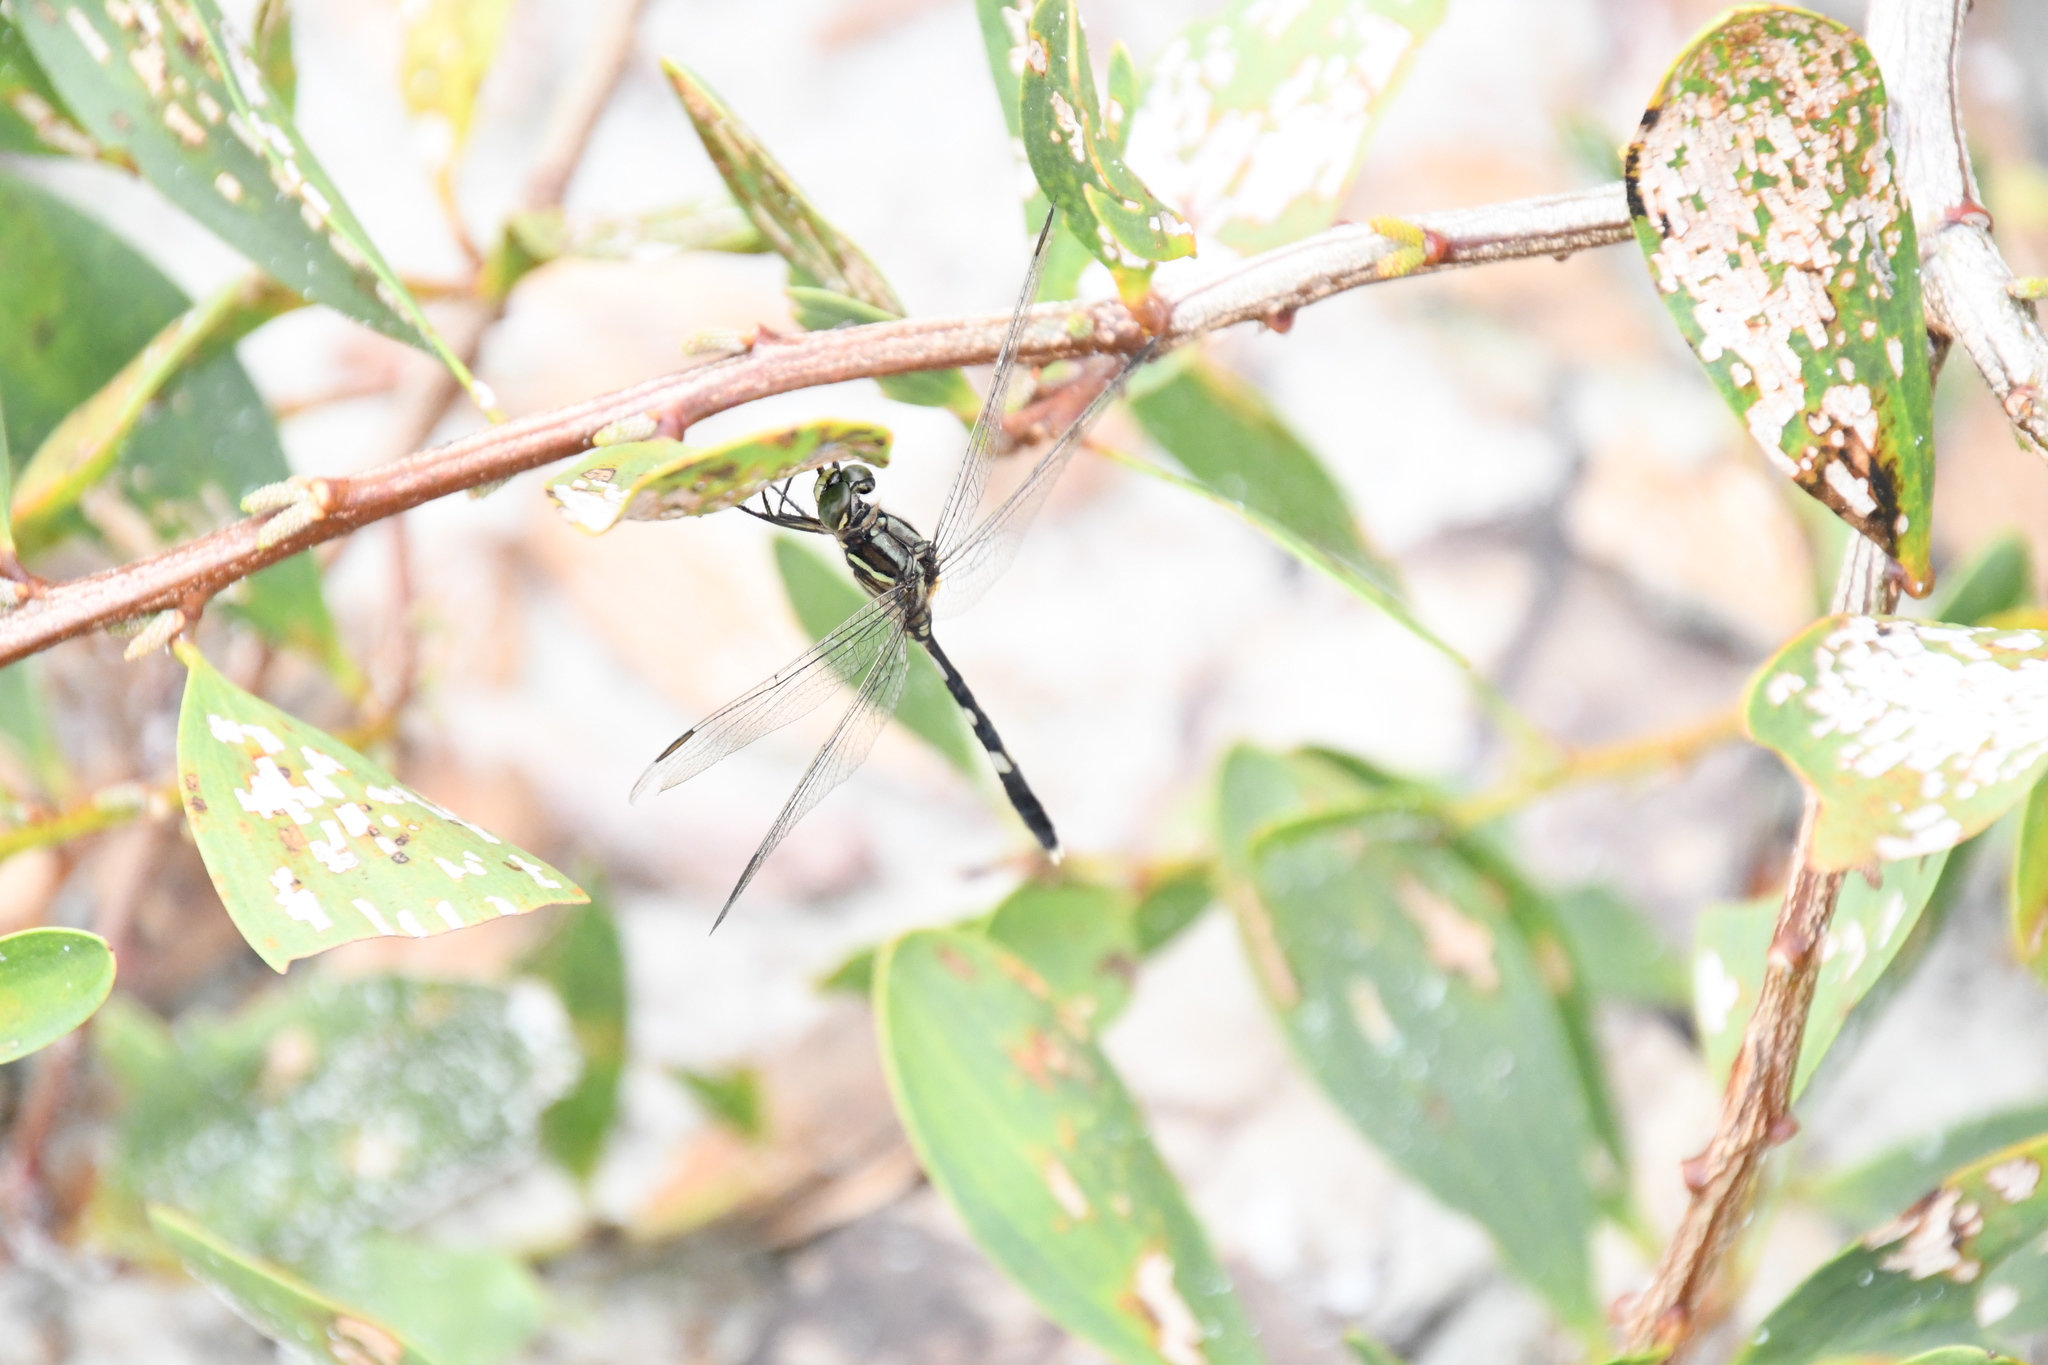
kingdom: Animalia
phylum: Arthropoda
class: Insecta
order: Odonata
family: Libellulidae
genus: Orthetrum
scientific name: Orthetrum sabina
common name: Slender skimmer
